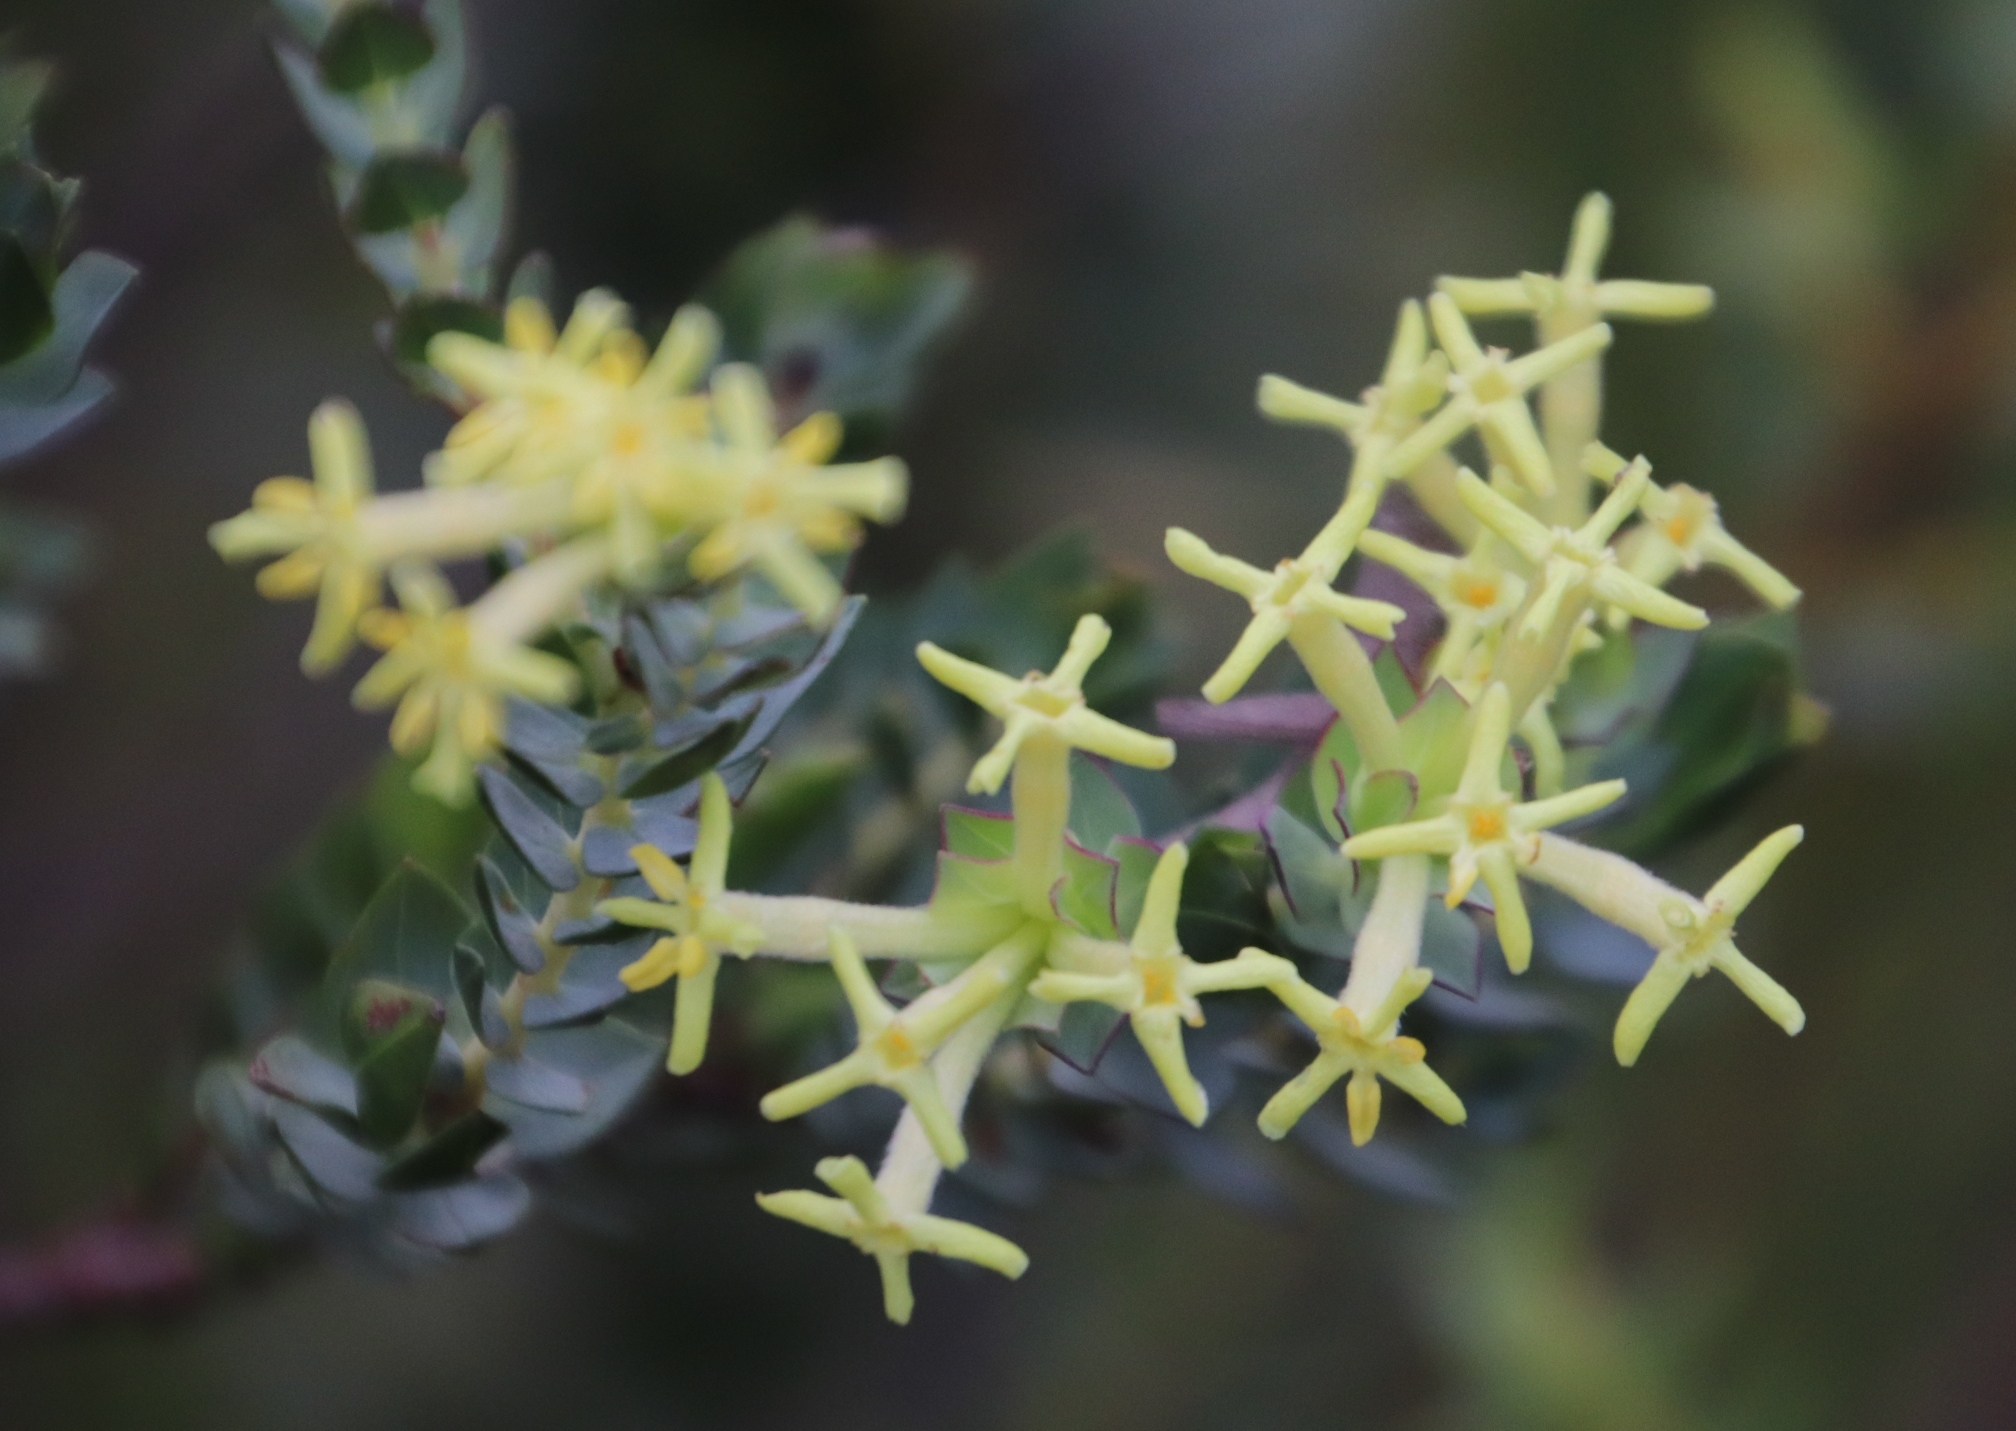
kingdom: Plantae
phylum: Tracheophyta
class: Magnoliopsida
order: Malvales
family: Thymelaeaceae
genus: Gnidia
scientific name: Gnidia oppositifolia
